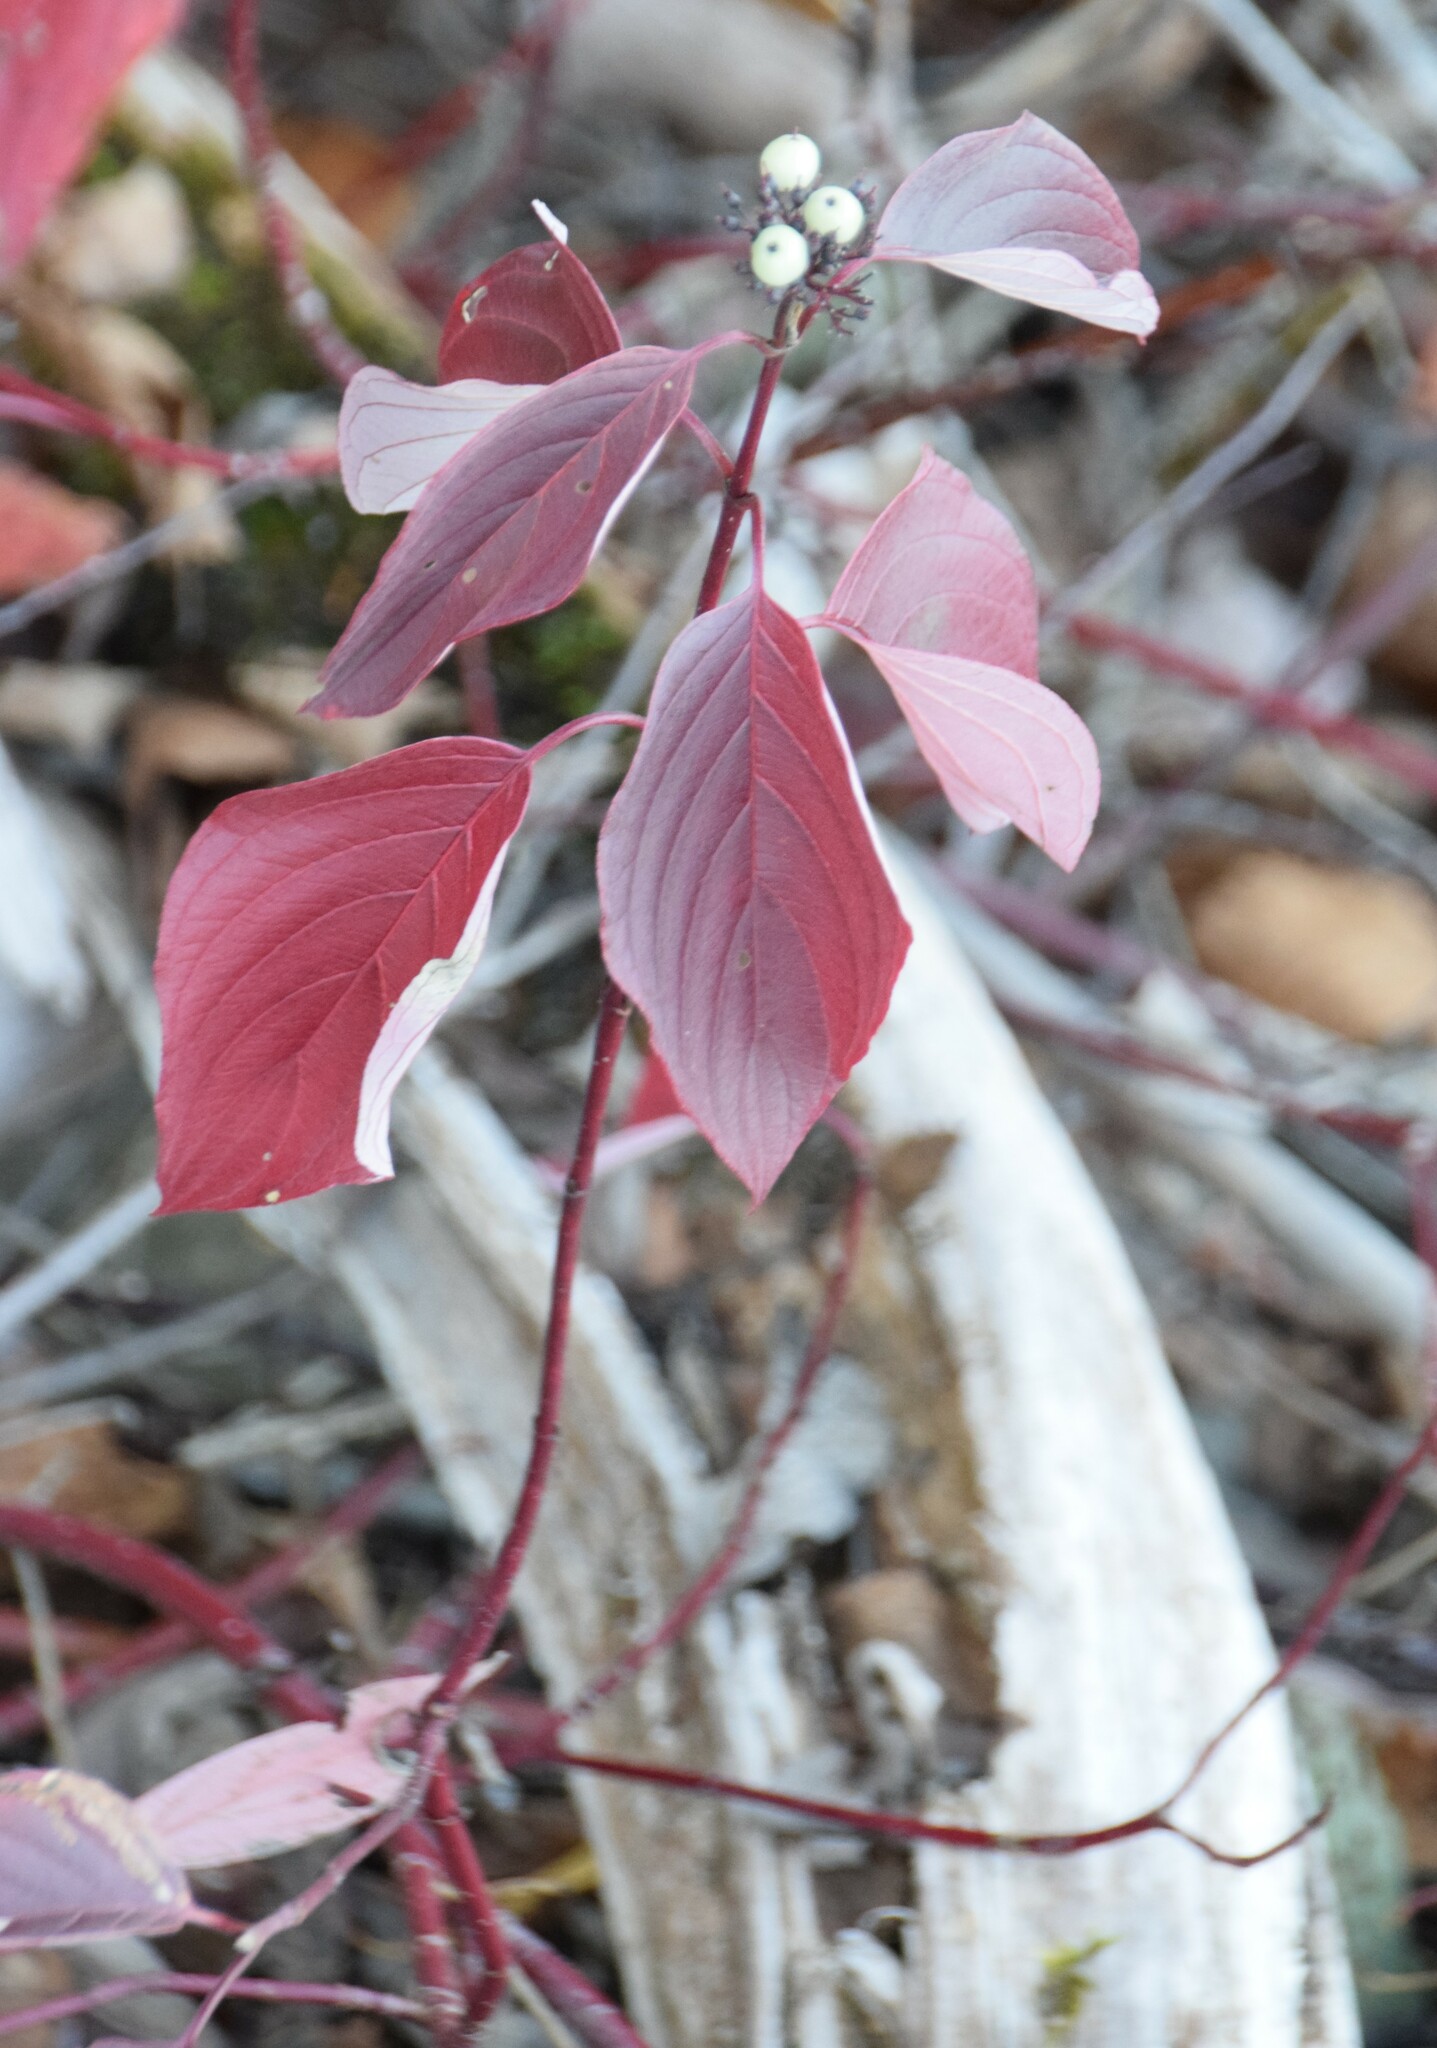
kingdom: Plantae
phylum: Tracheophyta
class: Magnoliopsida
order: Cornales
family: Cornaceae
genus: Cornus
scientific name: Cornus sericea
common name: Red-osier dogwood
